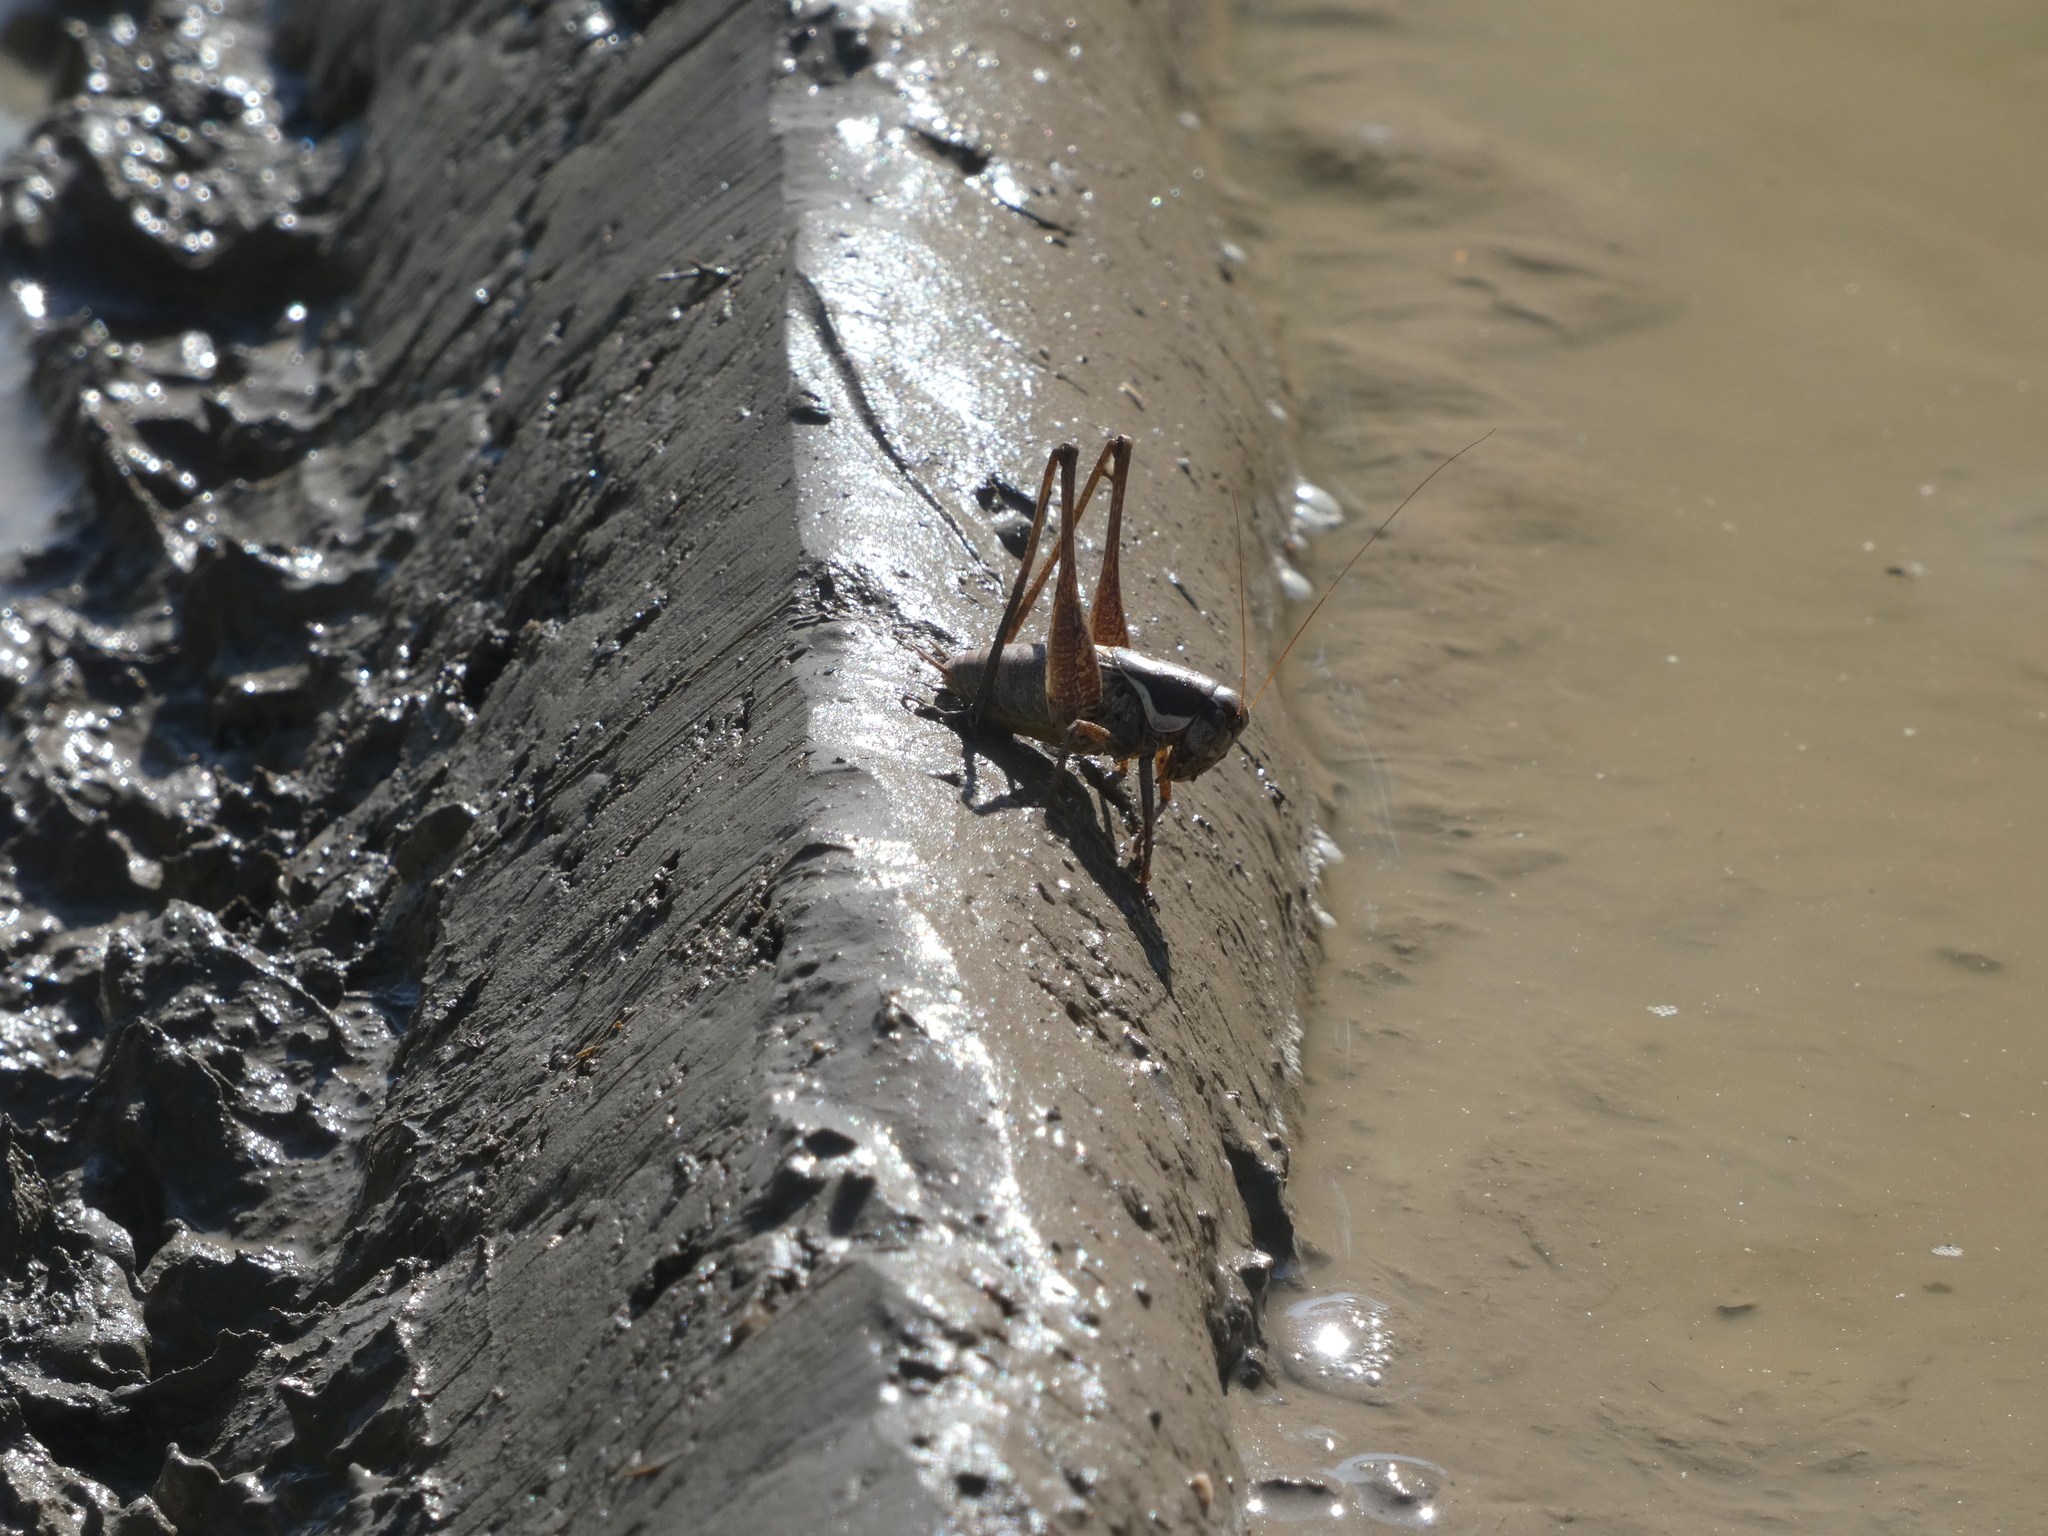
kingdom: Animalia
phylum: Arthropoda
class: Insecta
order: Orthoptera
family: Tettigoniidae
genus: Pholidoptera
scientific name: Pholidoptera femorata
